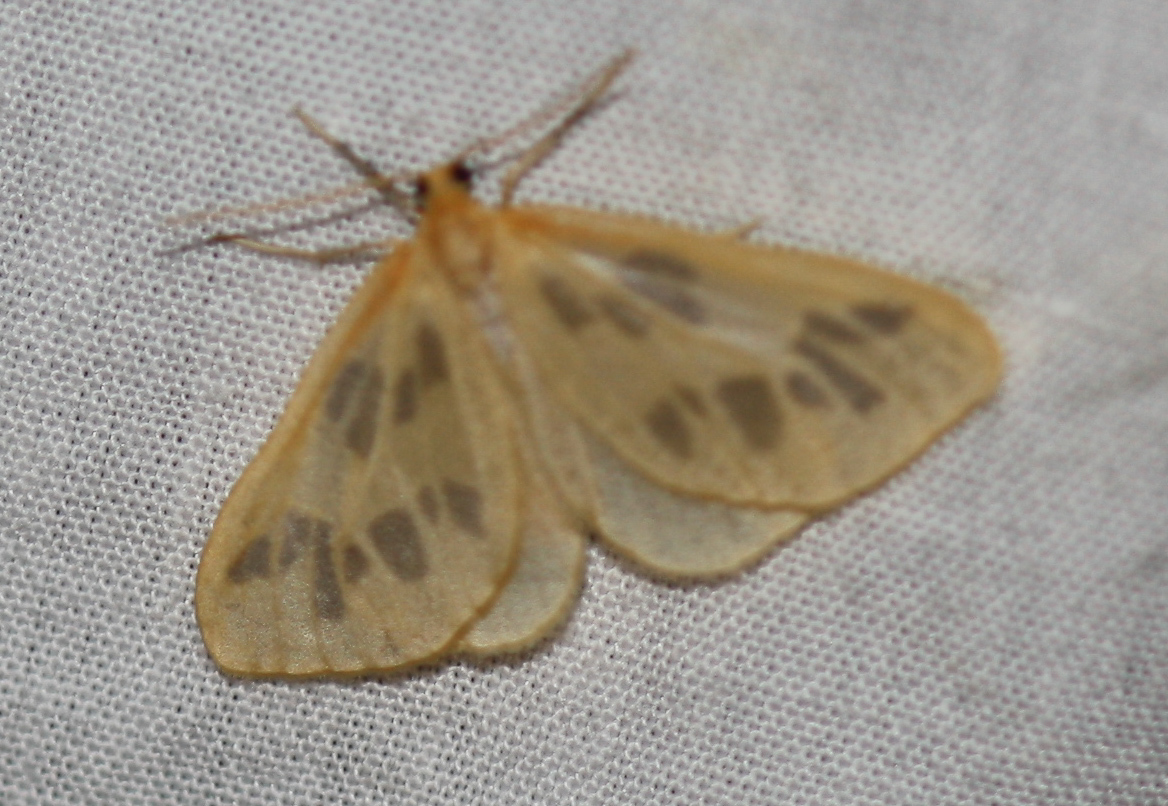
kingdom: Animalia
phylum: Arthropoda
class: Insecta
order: Lepidoptera
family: Geometridae
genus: Eubaphe
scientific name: Eubaphe mendica
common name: Beggar
